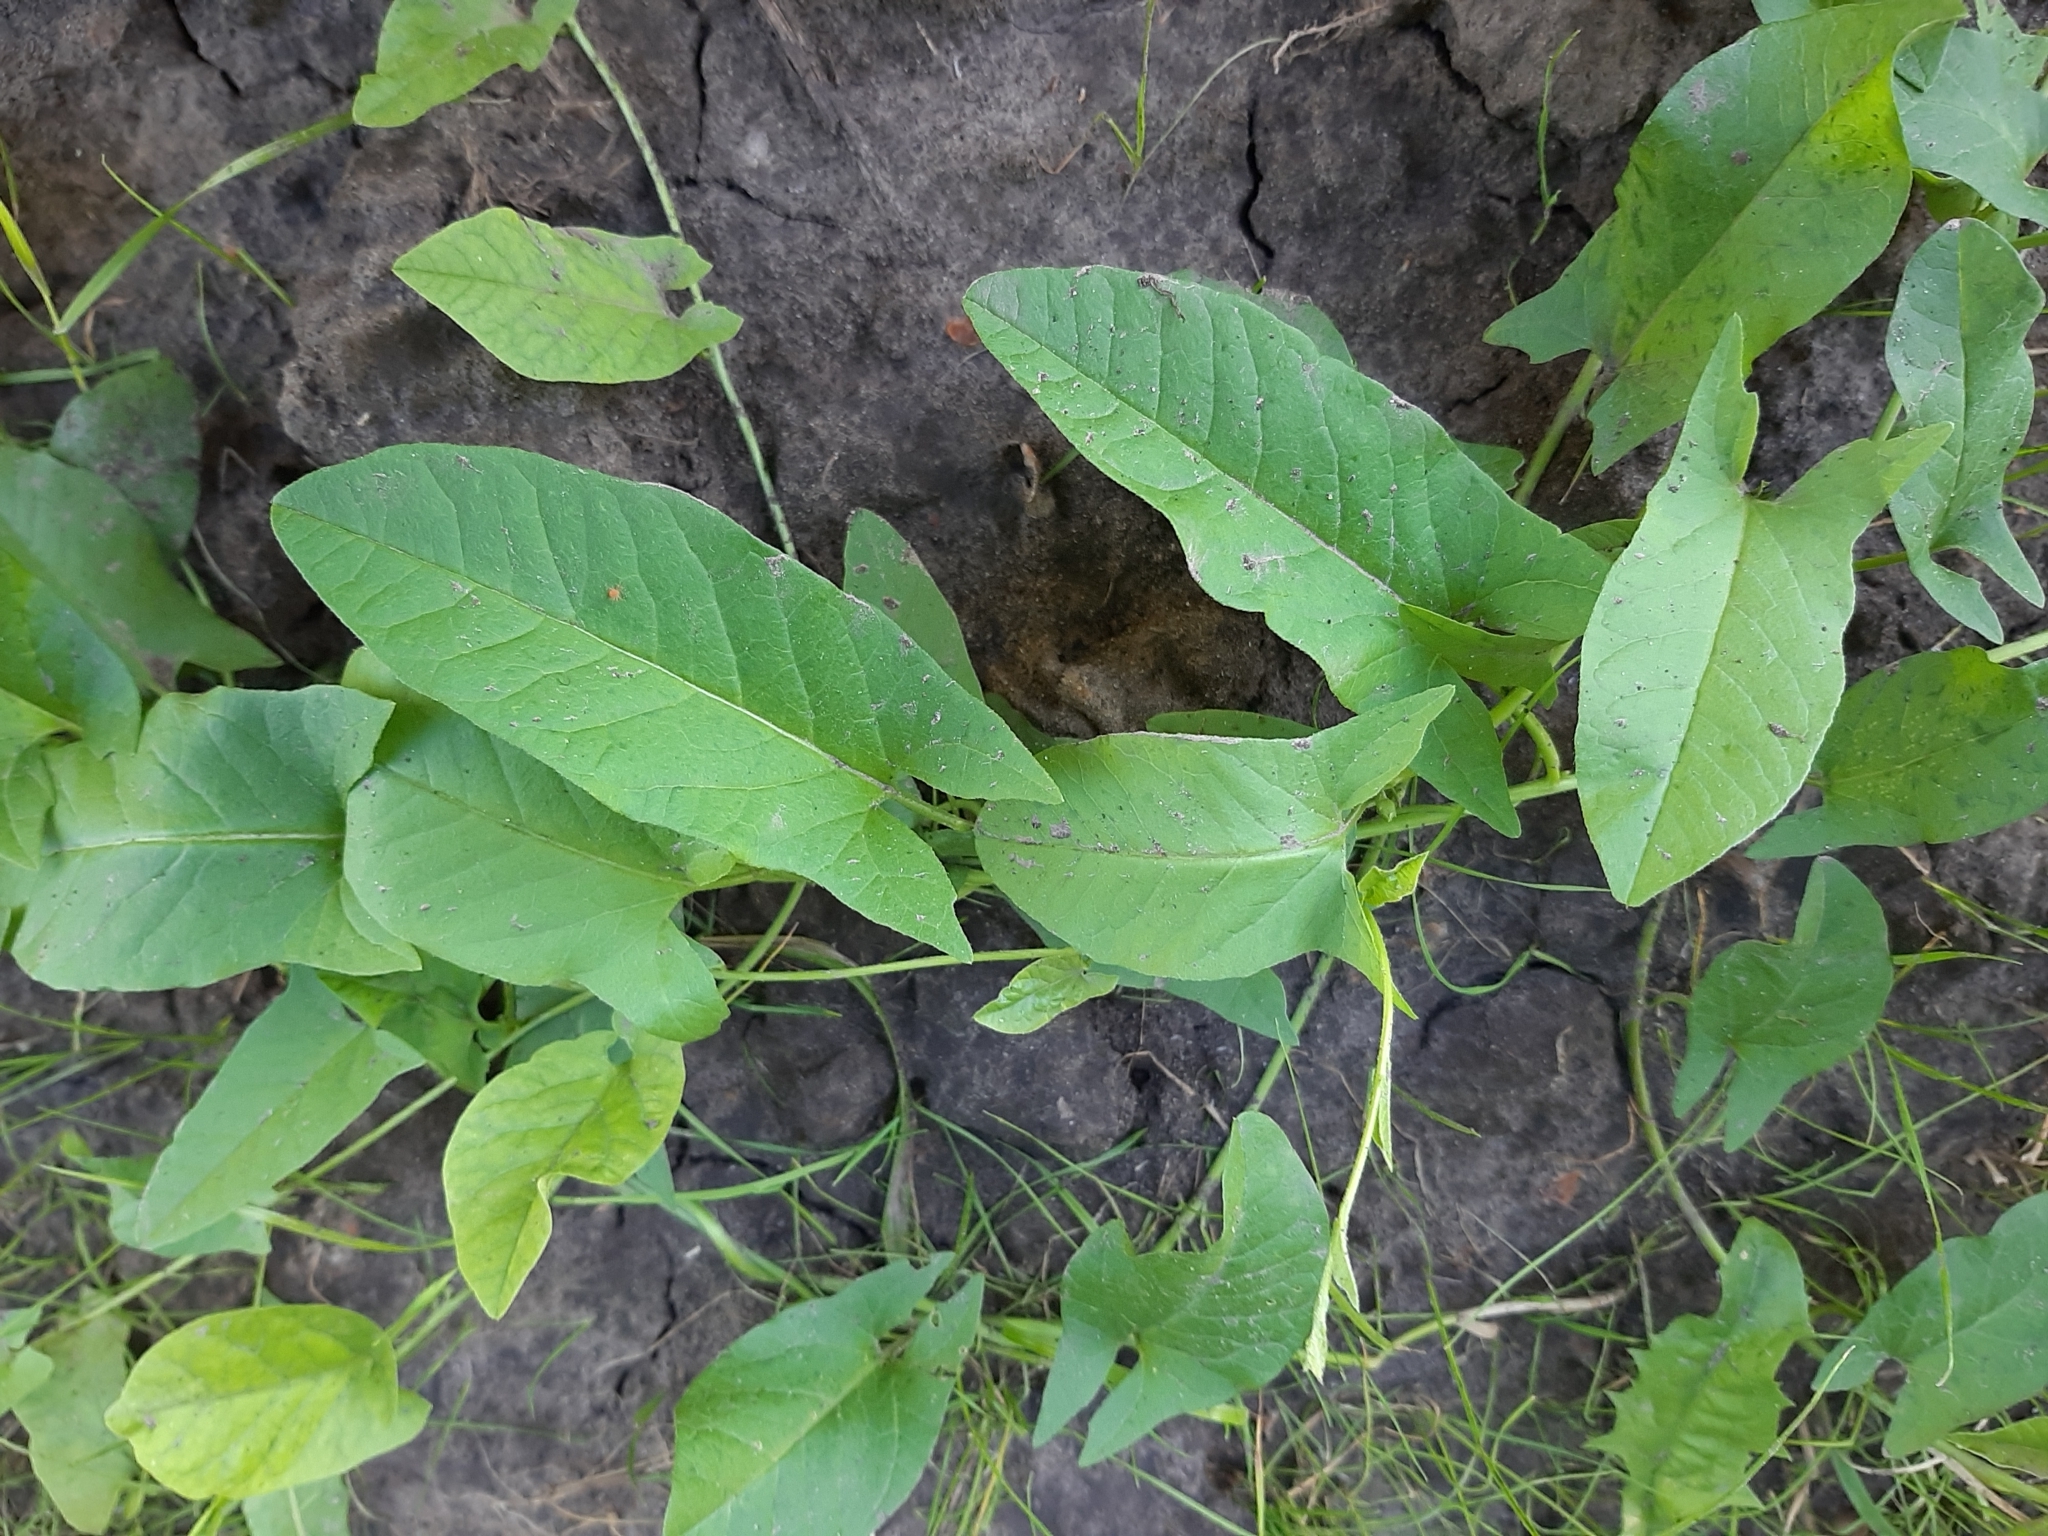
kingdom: Plantae
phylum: Tracheophyta
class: Magnoliopsida
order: Solanales
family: Convolvulaceae
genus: Convolvulus
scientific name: Convolvulus arvensis
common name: Field bindweed
